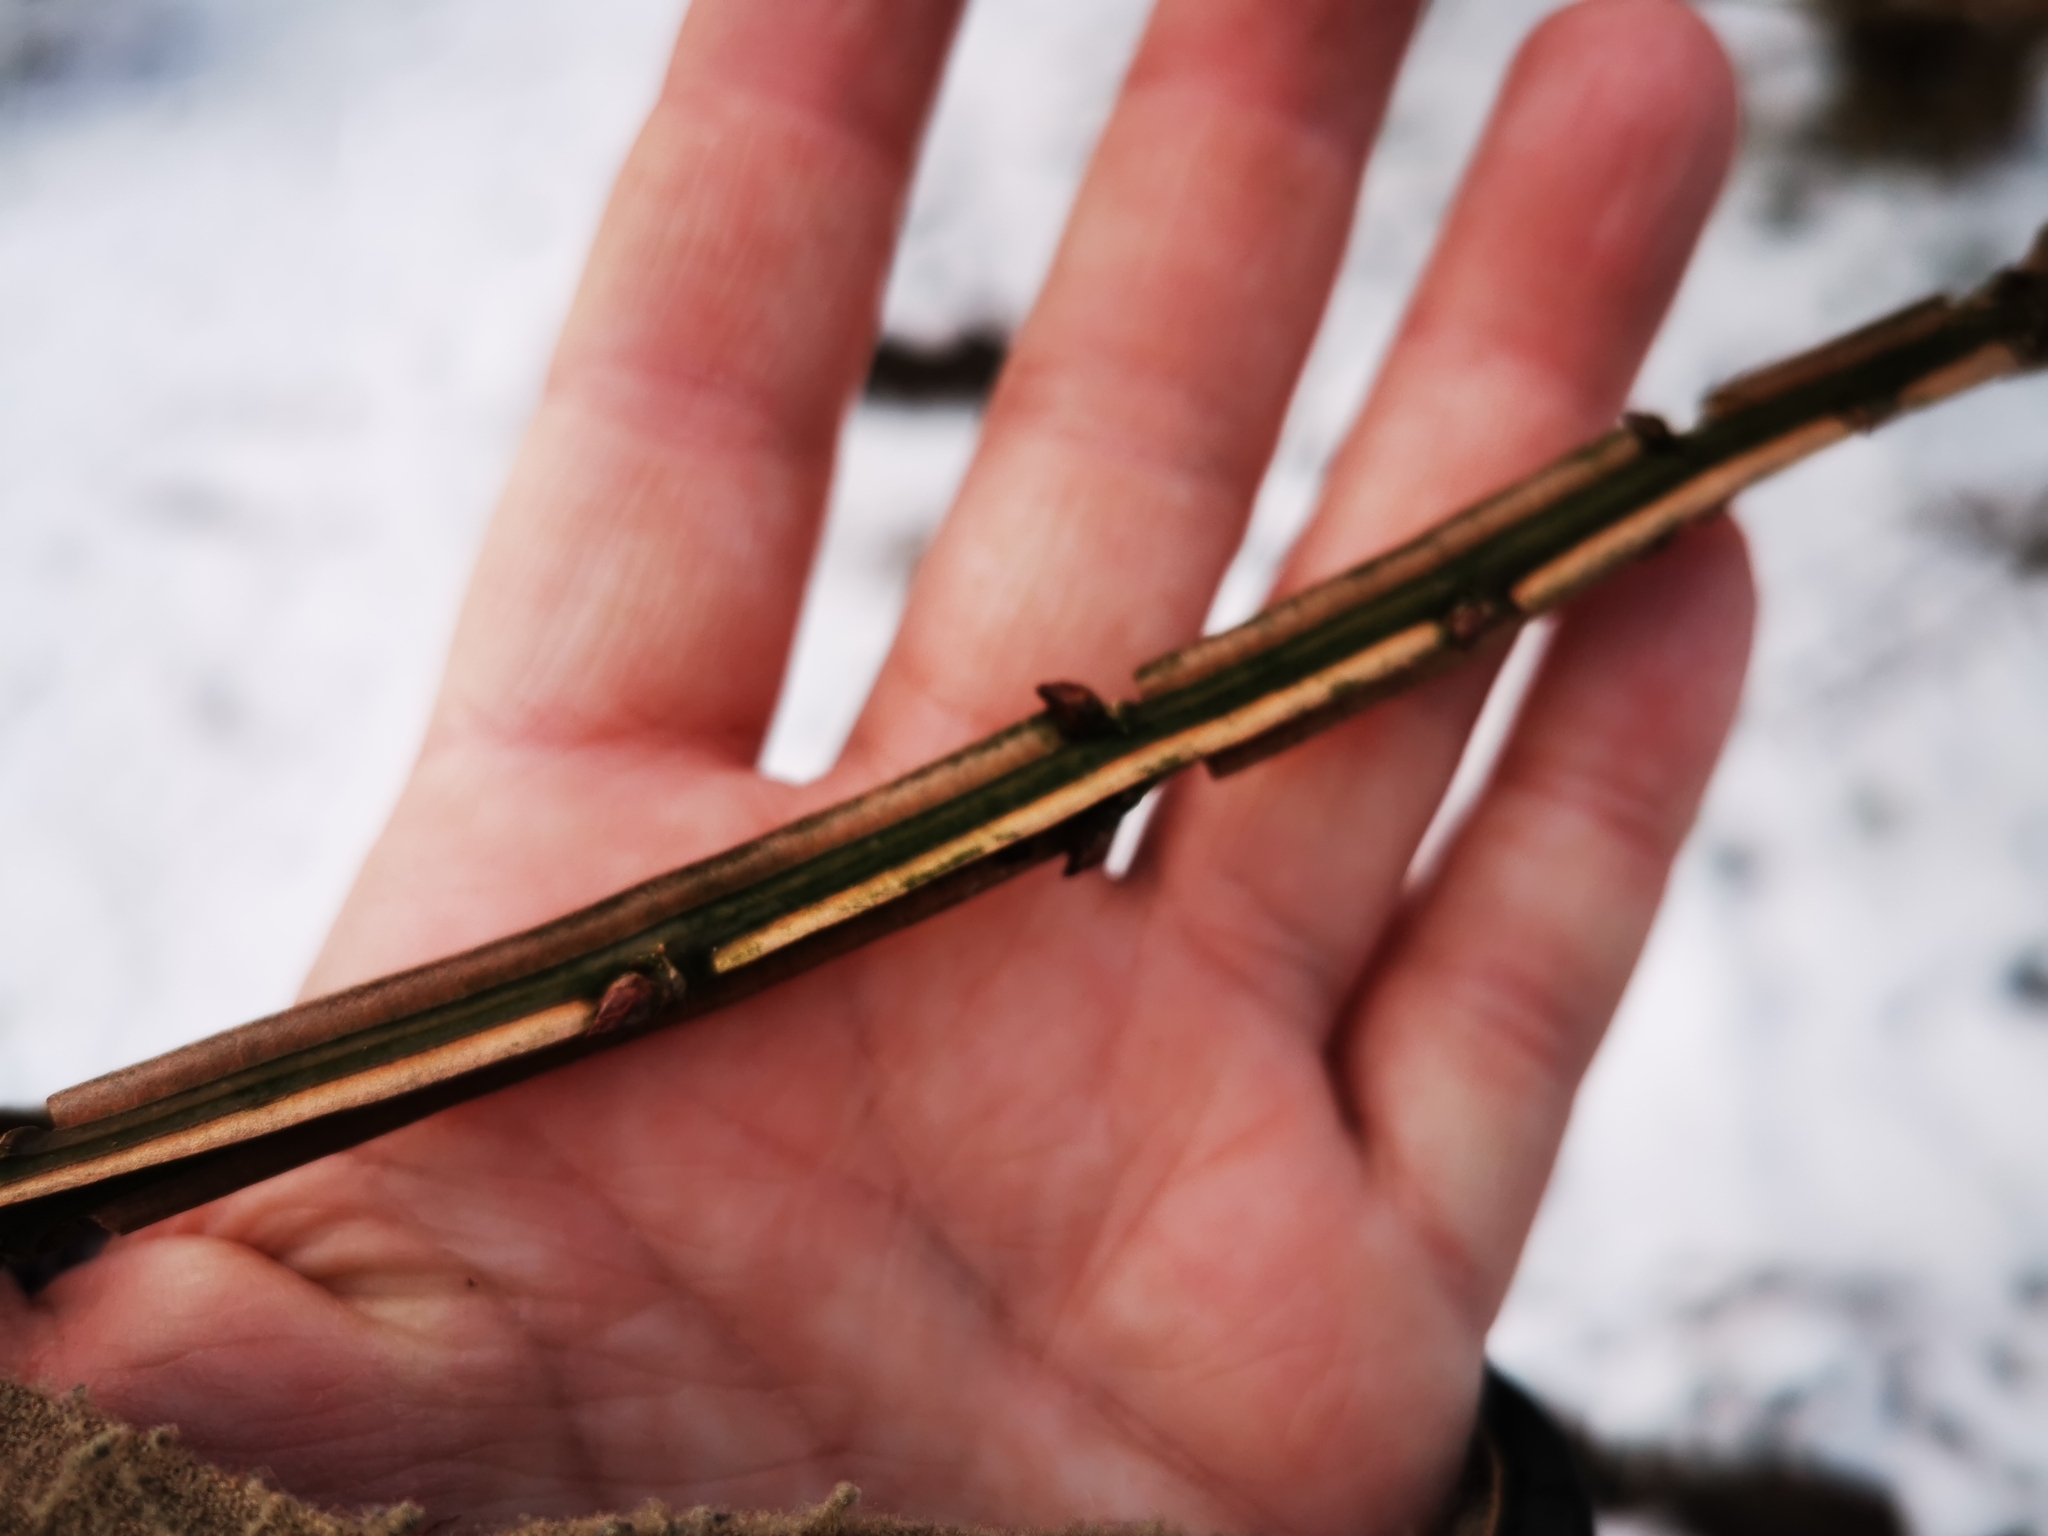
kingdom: Plantae
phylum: Tracheophyta
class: Magnoliopsida
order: Celastrales
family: Celastraceae
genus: Euonymus
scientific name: Euonymus alatus
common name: Winged euonymus
